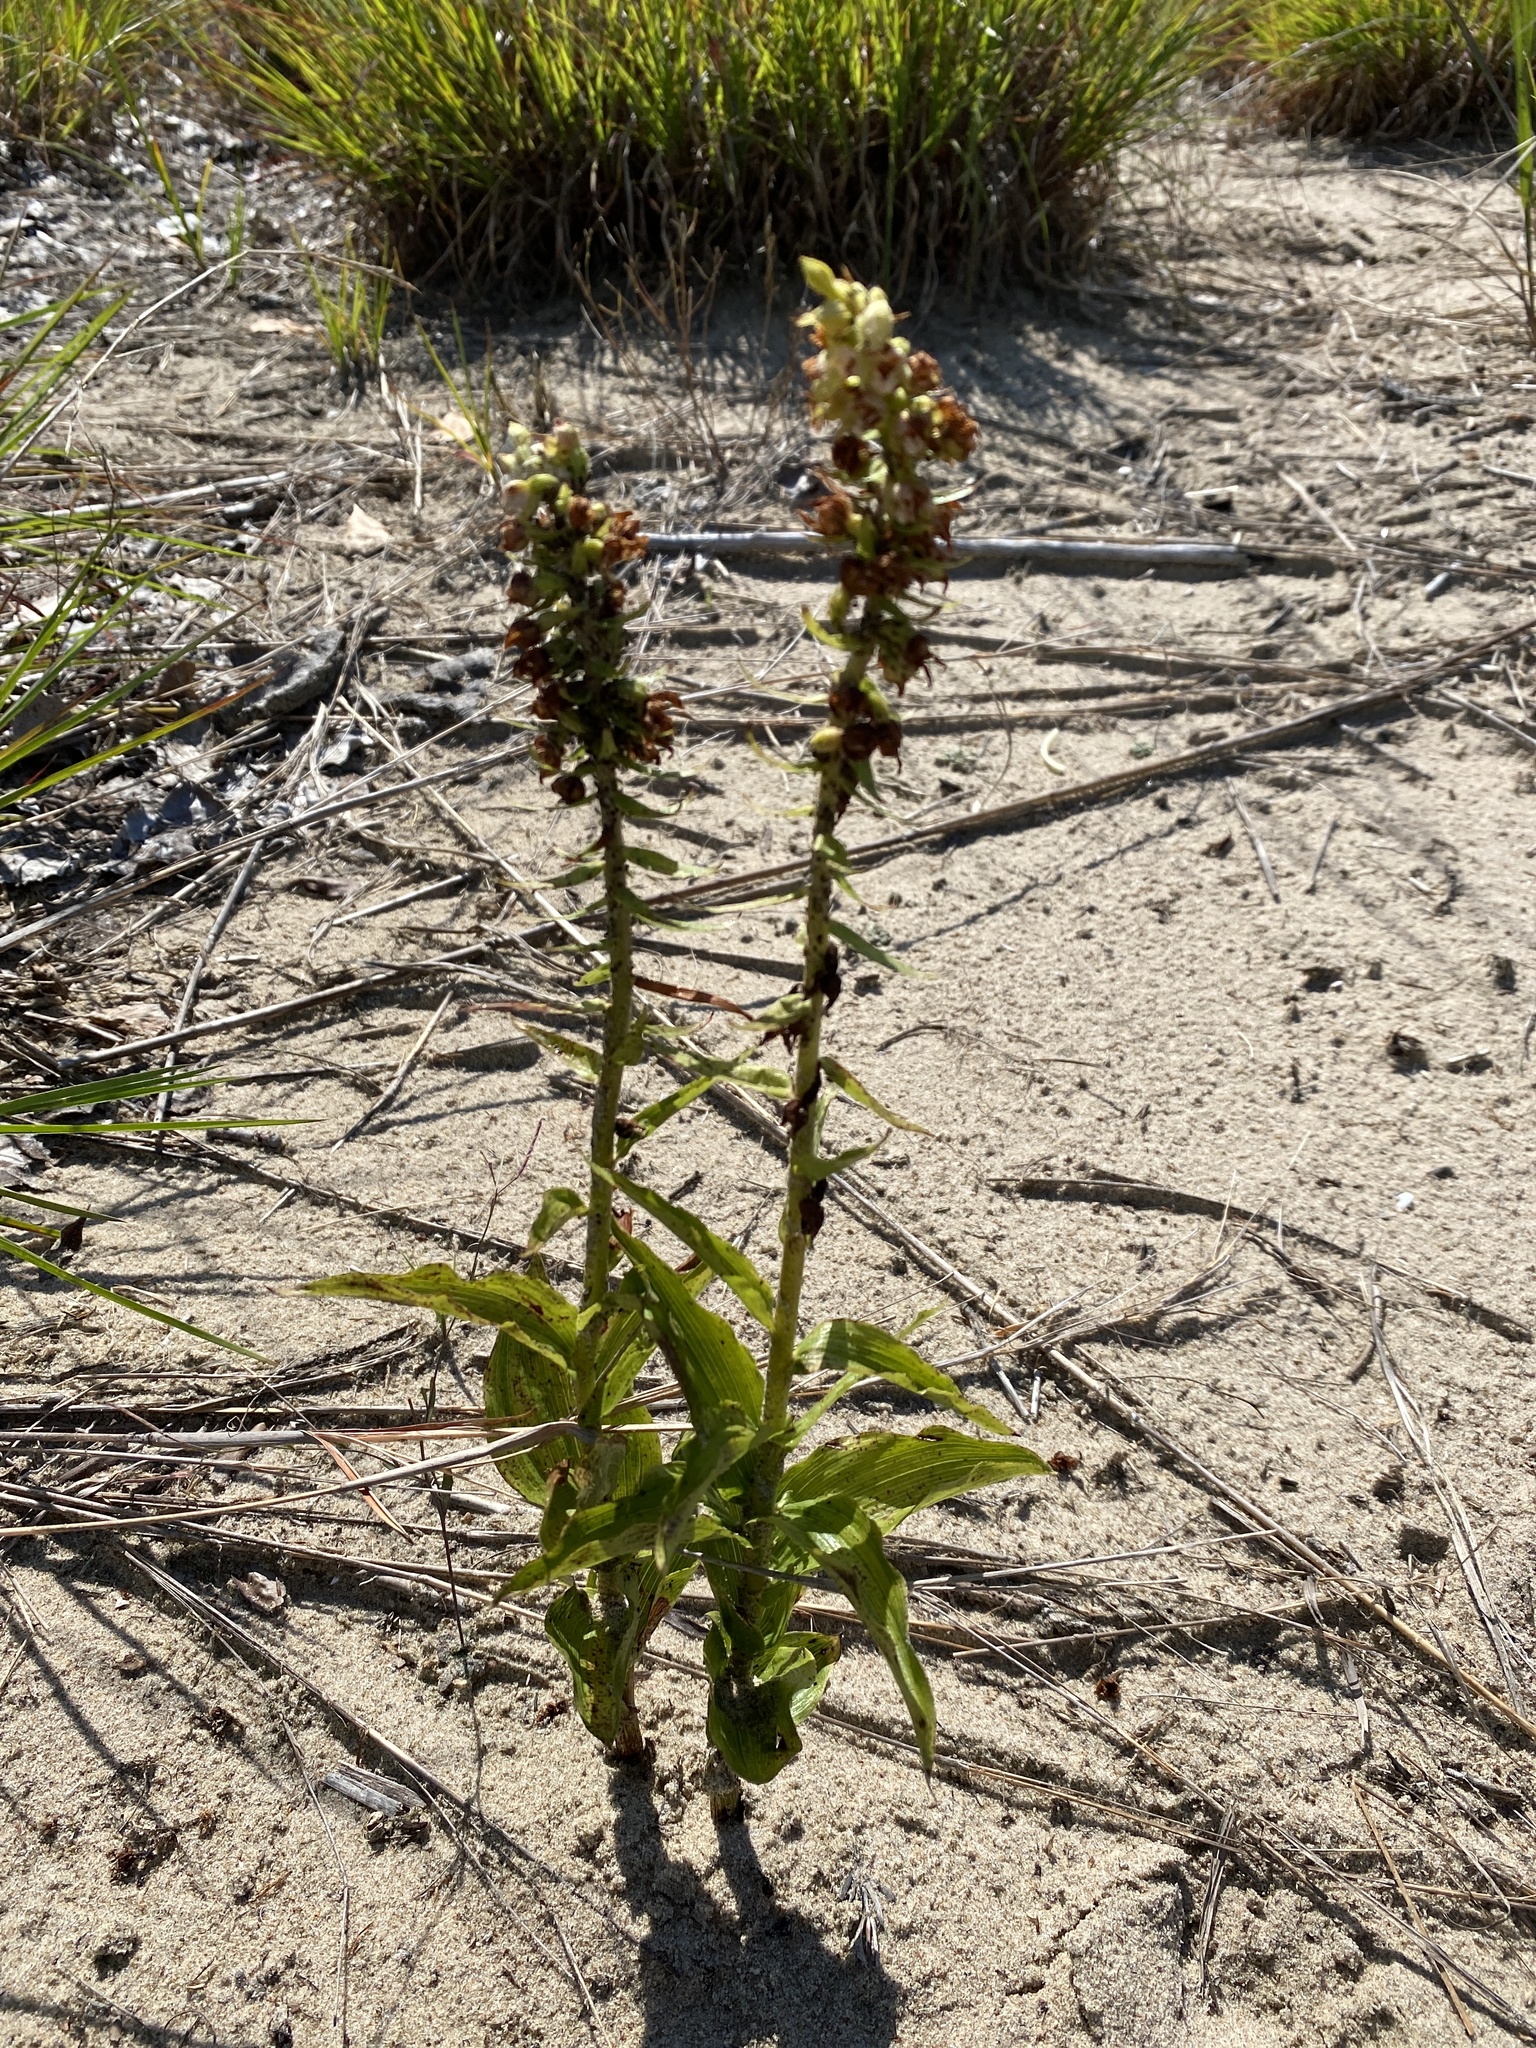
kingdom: Plantae
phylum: Tracheophyta
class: Liliopsida
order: Asparagales
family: Orchidaceae
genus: Epipactis
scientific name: Epipactis helleborine
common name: Broad-leaved helleborine
